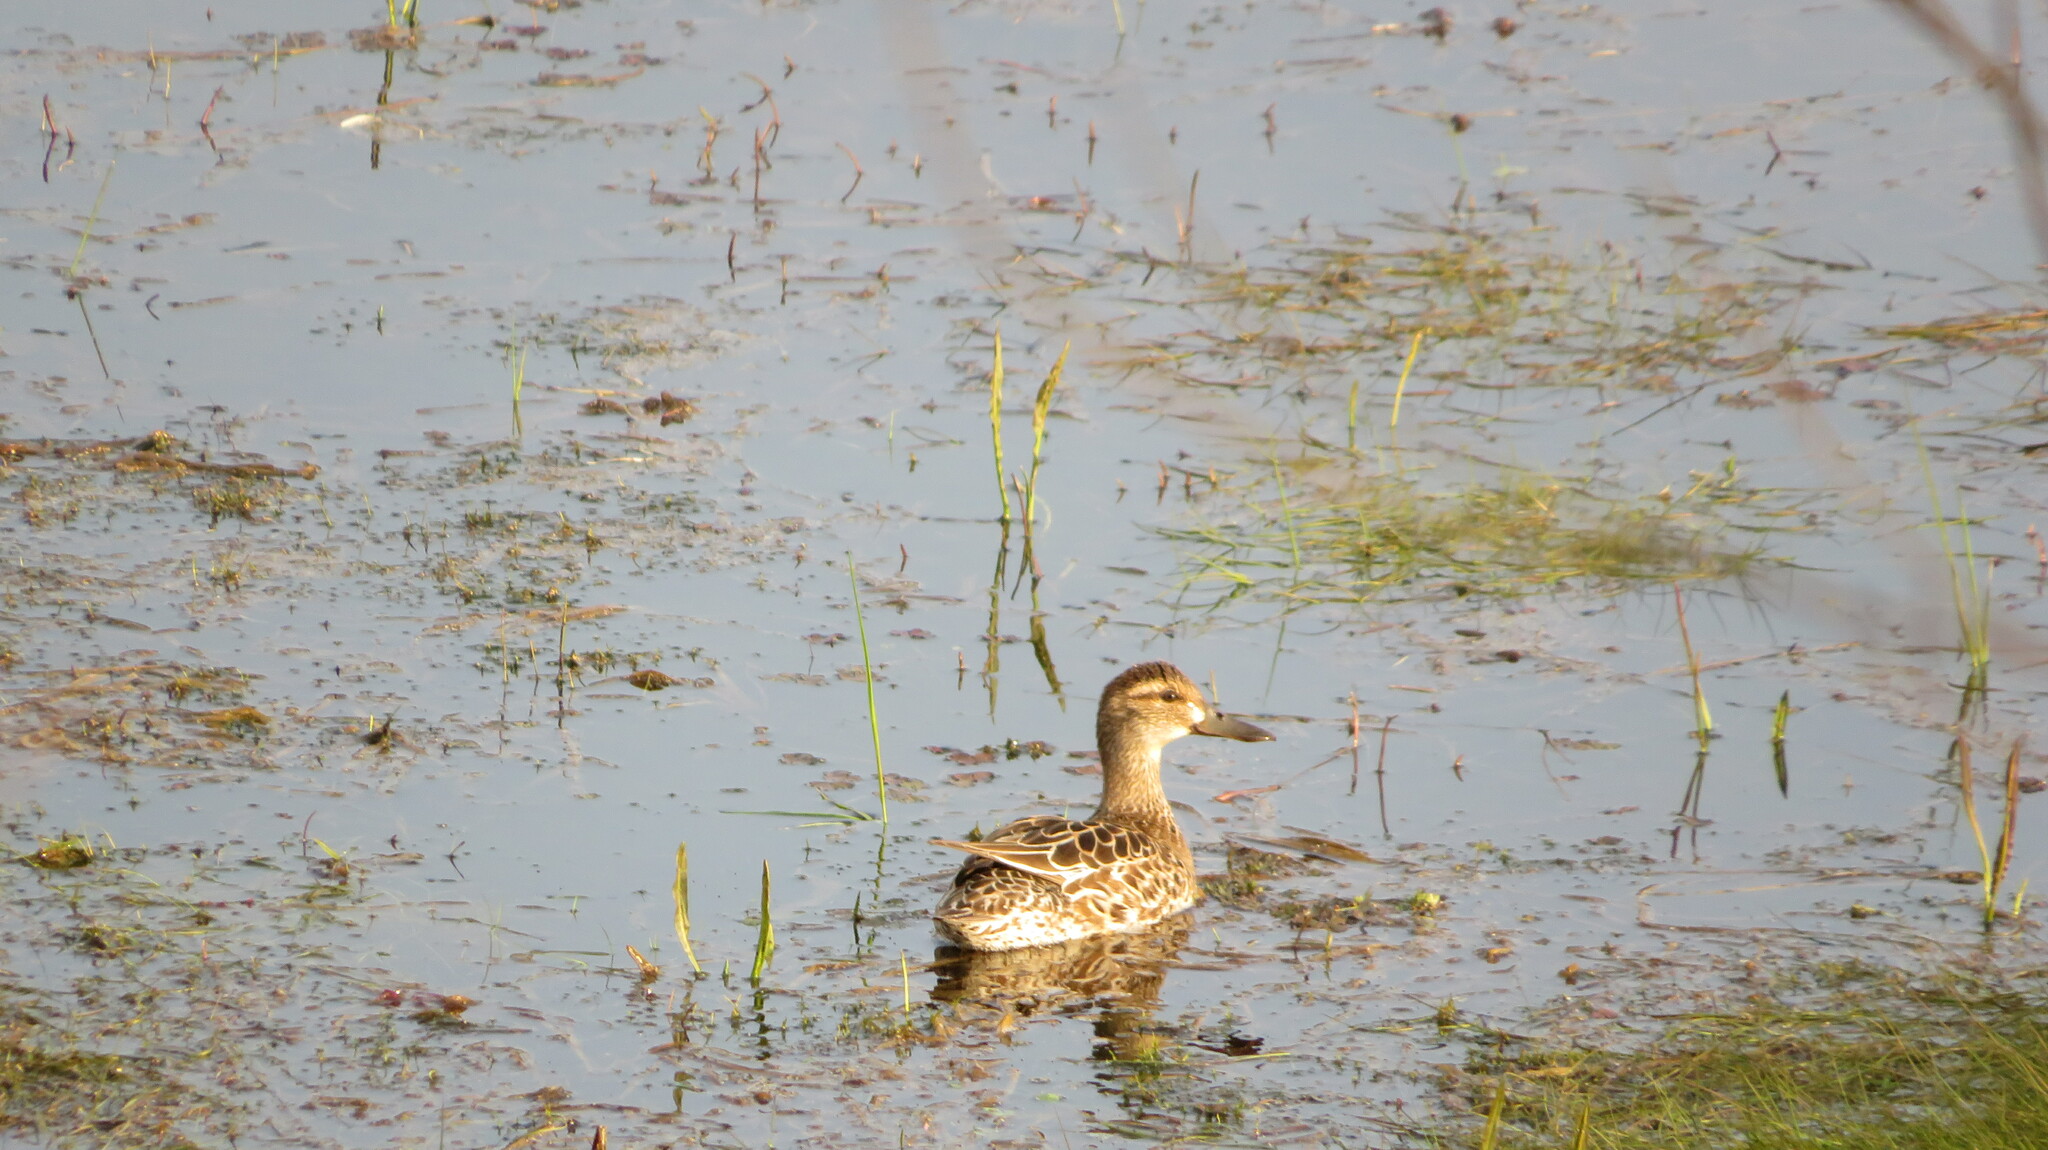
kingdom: Animalia
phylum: Chordata
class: Aves
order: Anseriformes
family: Anatidae
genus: Spatula
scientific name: Spatula querquedula
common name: Garganey
